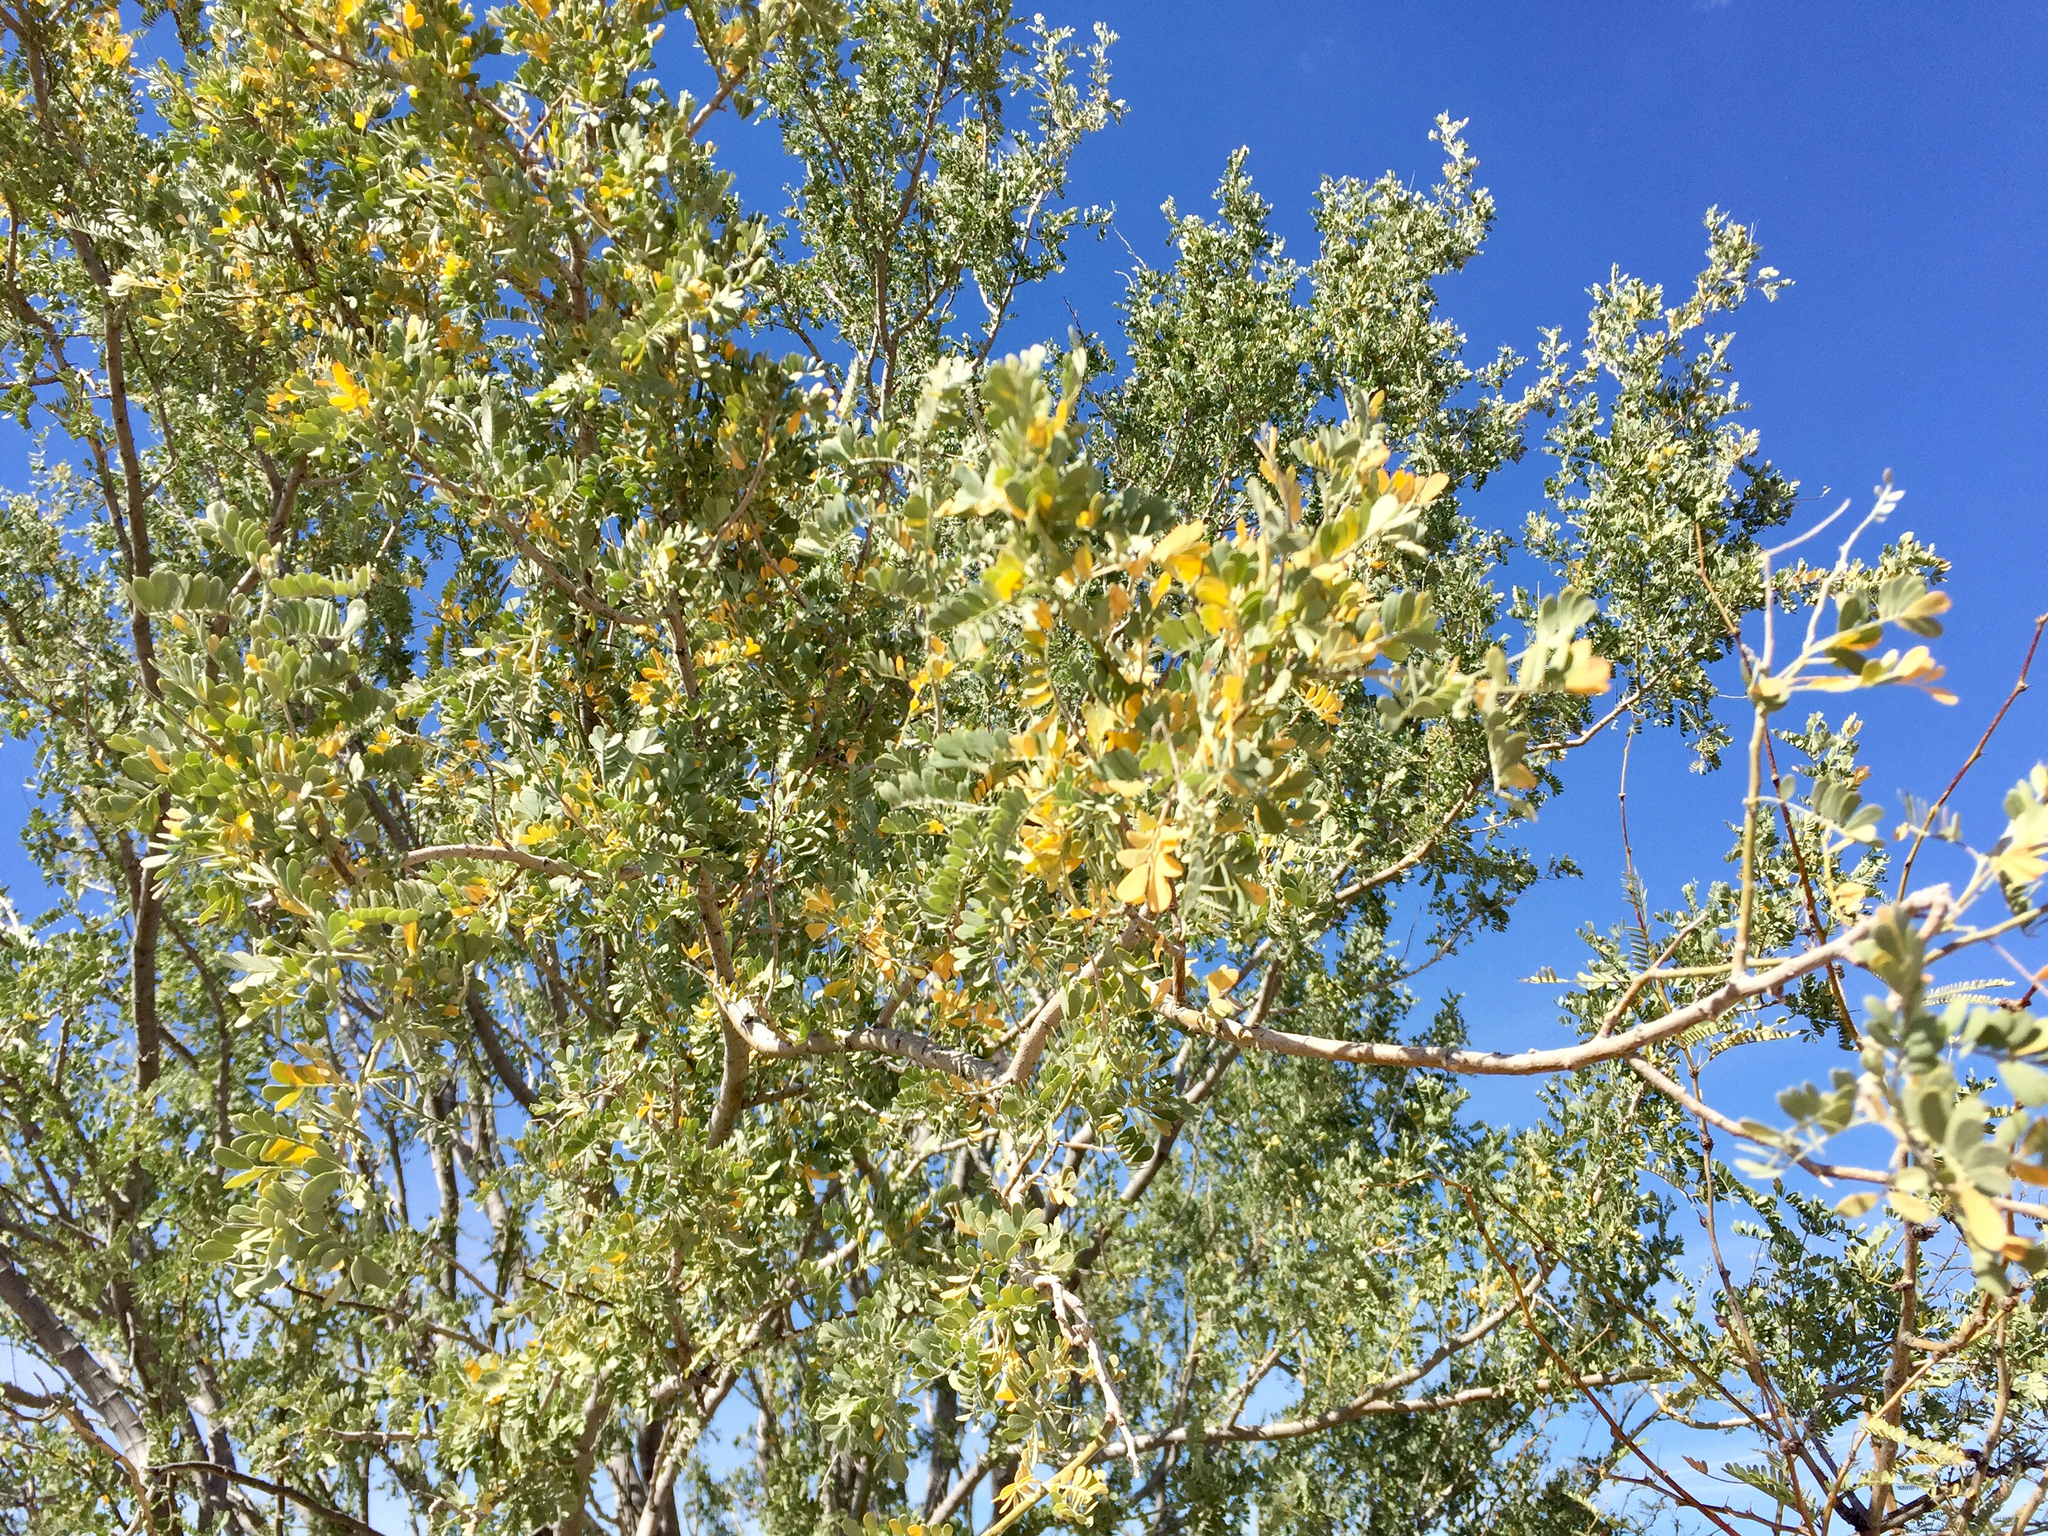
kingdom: Plantae
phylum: Tracheophyta
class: Magnoliopsida
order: Fabales
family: Fabaceae
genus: Olneya
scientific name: Olneya tesota
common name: Desert ironwood
